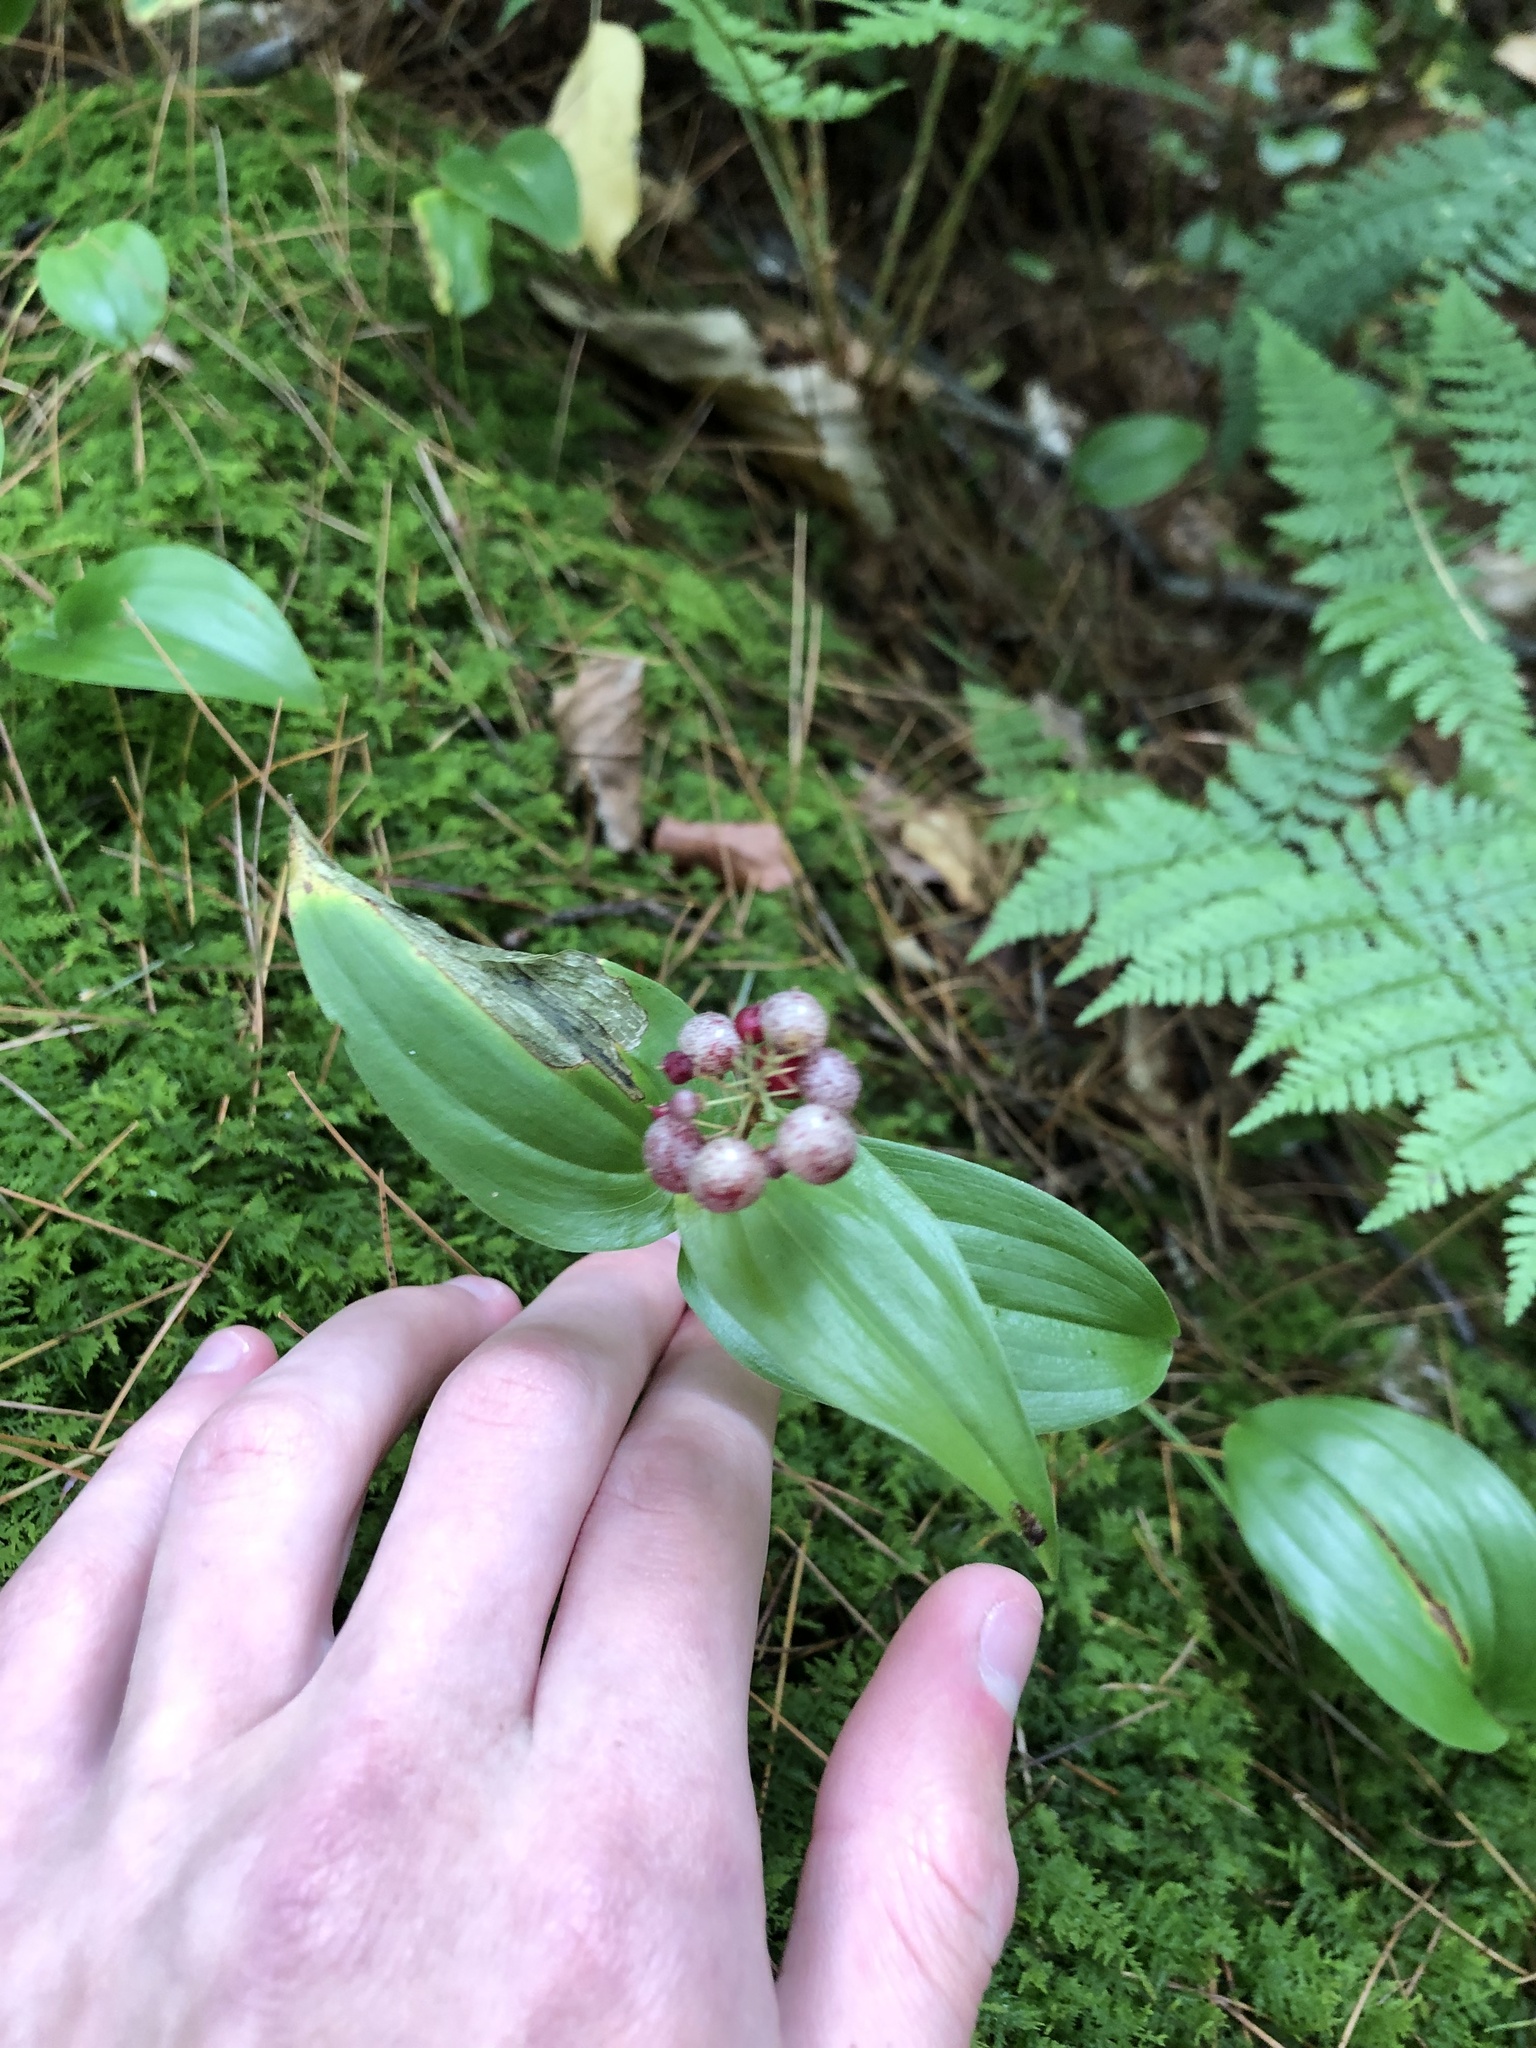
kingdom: Plantae
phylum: Tracheophyta
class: Liliopsida
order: Asparagales
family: Asparagaceae
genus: Maianthemum
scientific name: Maianthemum canadense
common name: False lily-of-the-valley
